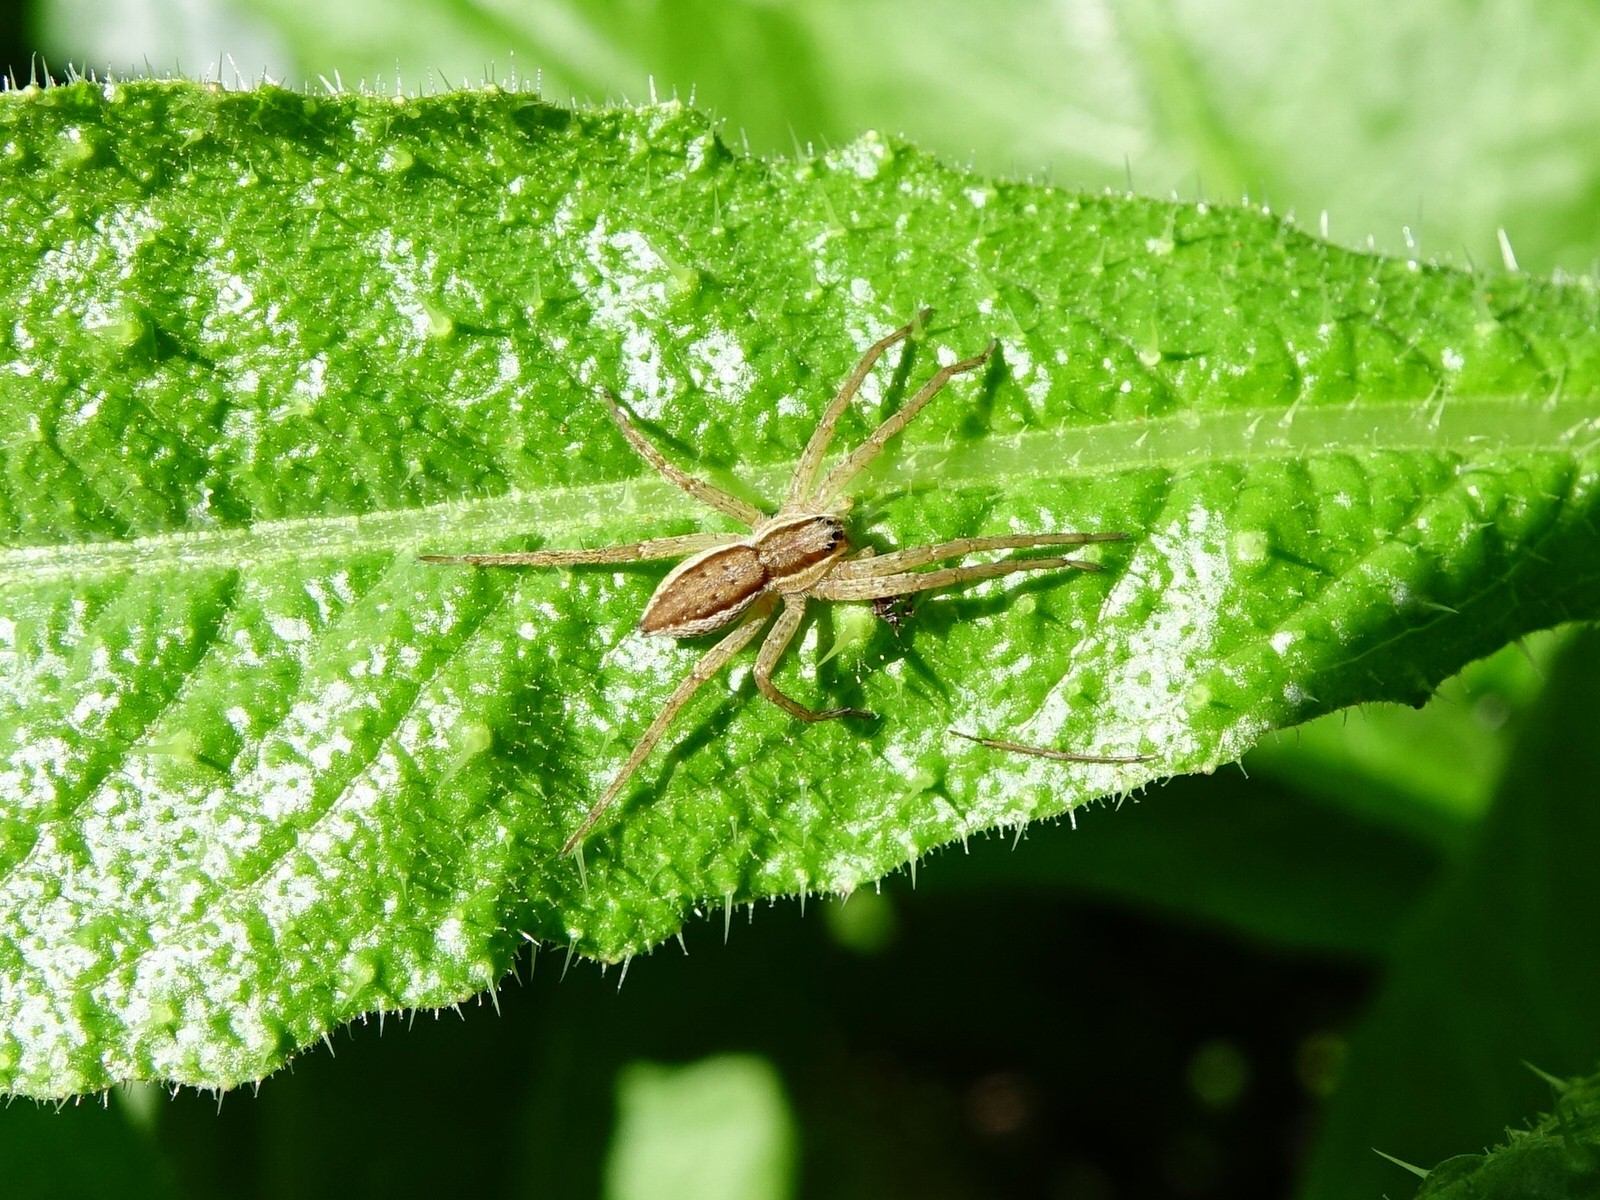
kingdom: Animalia
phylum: Arthropoda
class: Arachnida
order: Araneae
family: Pisauridae
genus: Dolomedes
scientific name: Dolomedes minor
